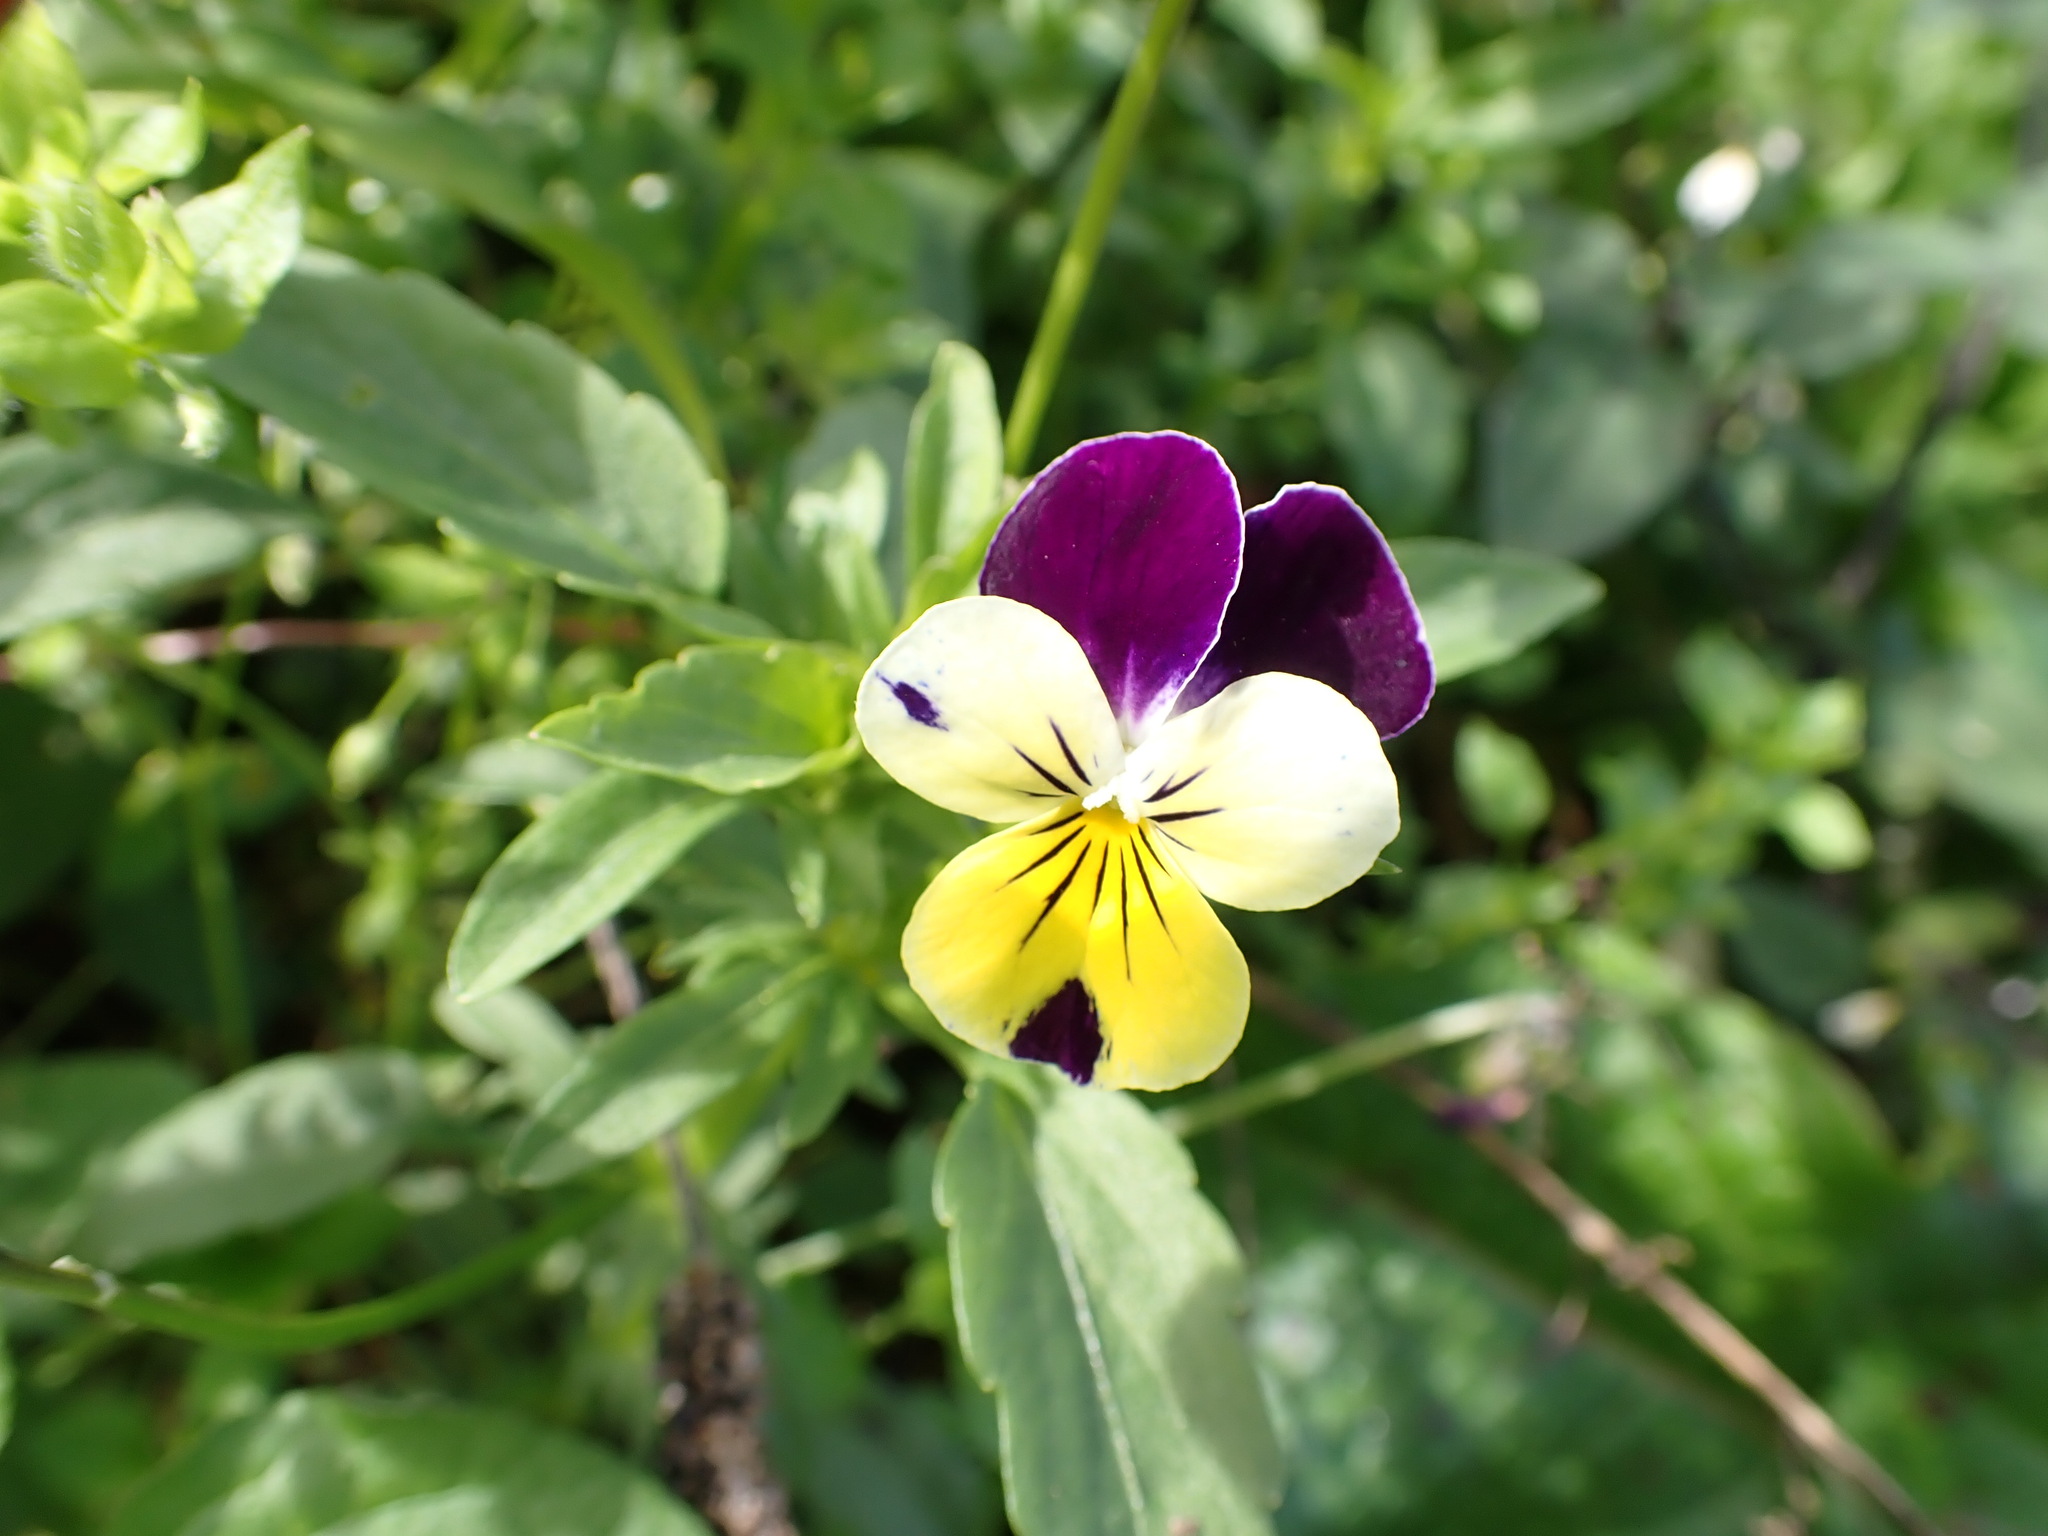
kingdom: Plantae
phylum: Tracheophyta
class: Magnoliopsida
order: Malpighiales
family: Violaceae
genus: Viola
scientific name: Viola williamsii
